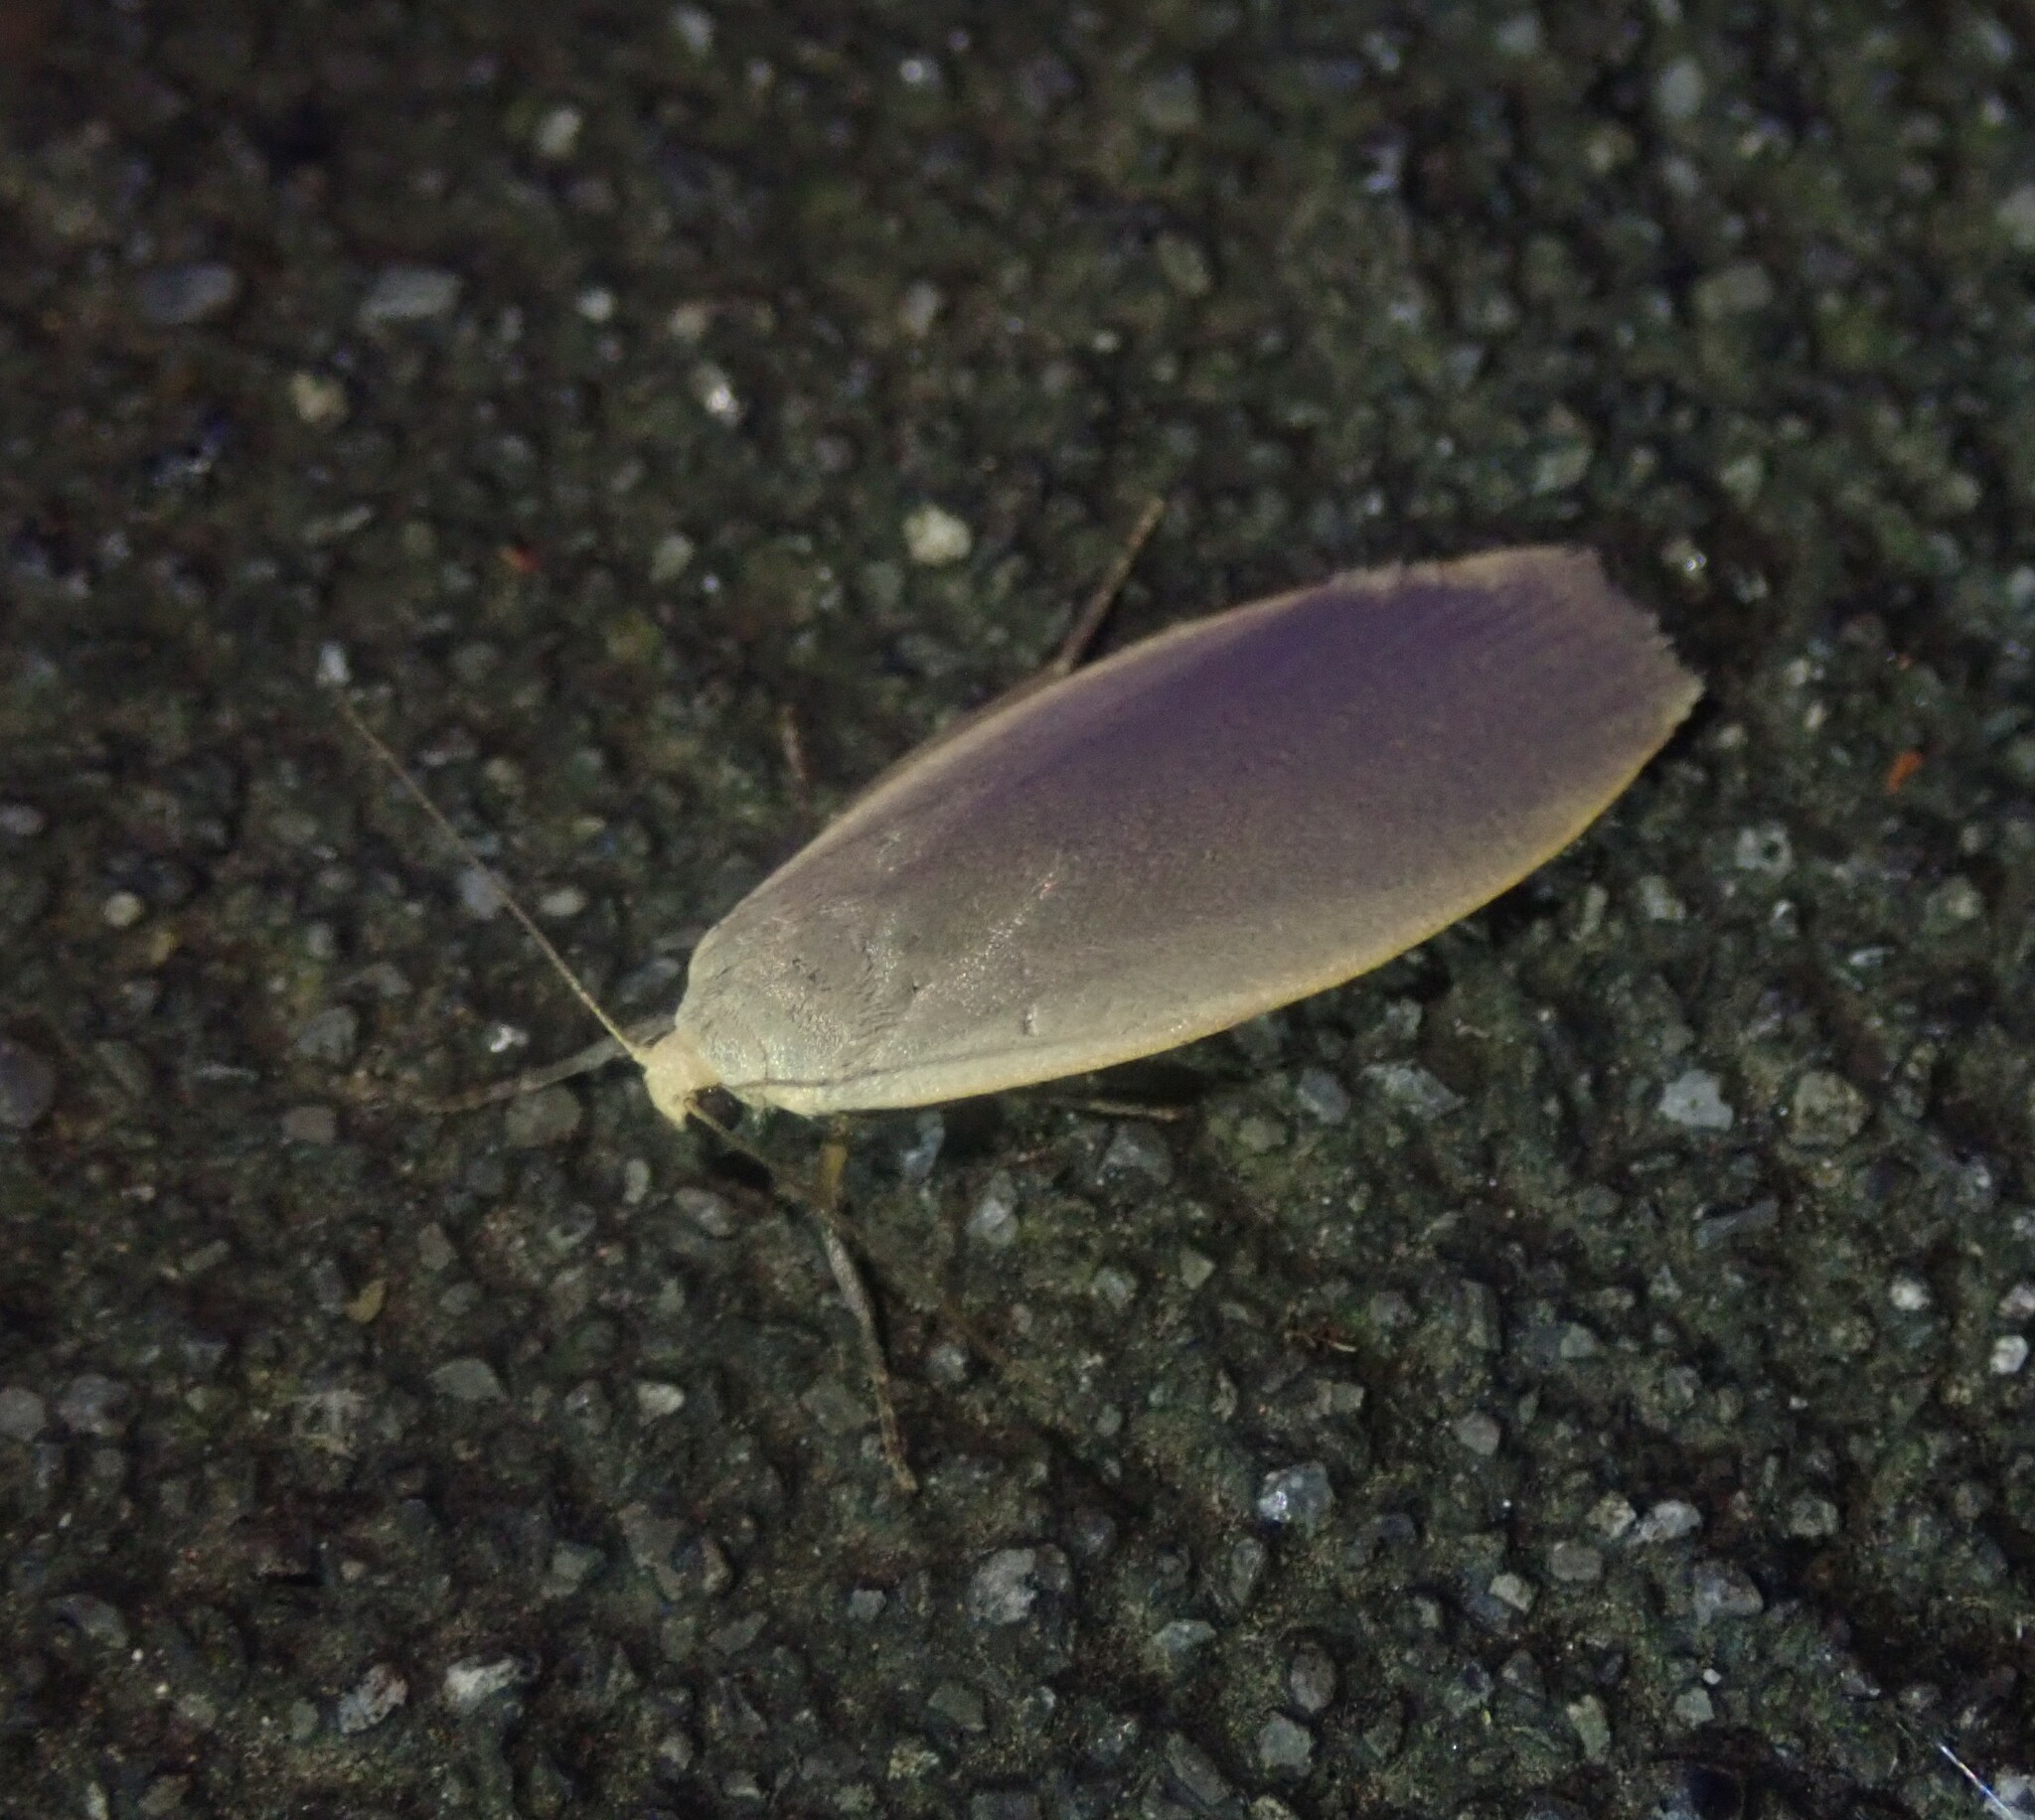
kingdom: Animalia
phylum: Arthropoda
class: Insecta
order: Lepidoptera
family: Erebidae
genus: Collita
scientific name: Collita griseola
